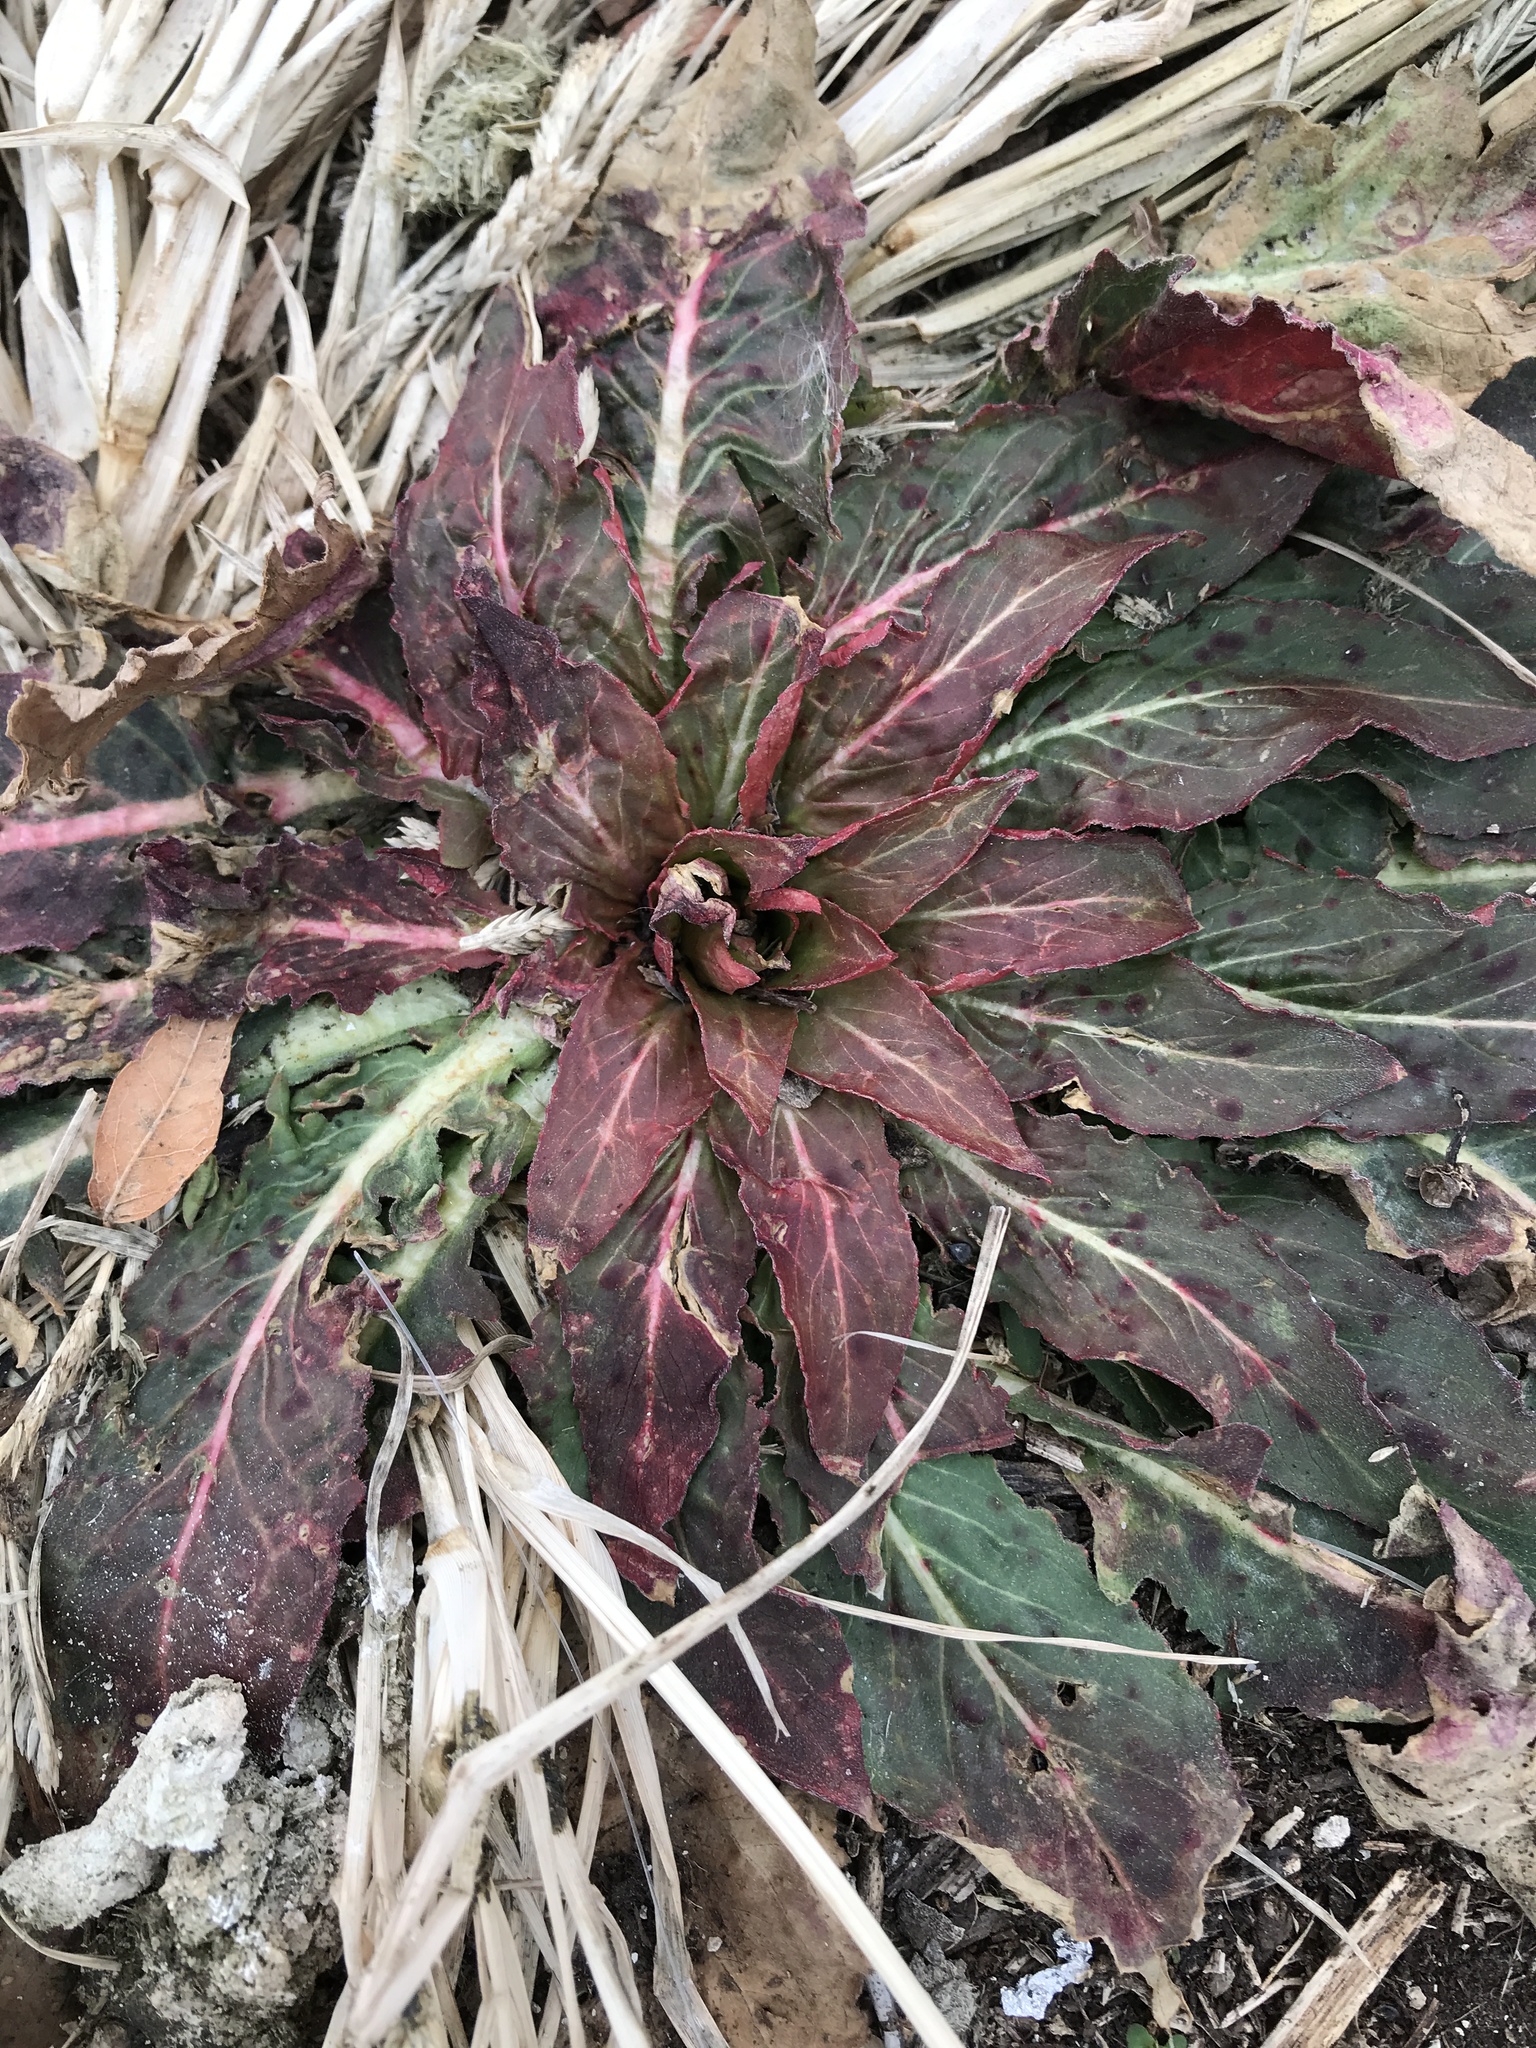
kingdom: Plantae
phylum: Tracheophyta
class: Magnoliopsida
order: Myrtales
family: Onagraceae
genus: Oenothera
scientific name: Oenothera biennis
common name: Common evening-primrose
